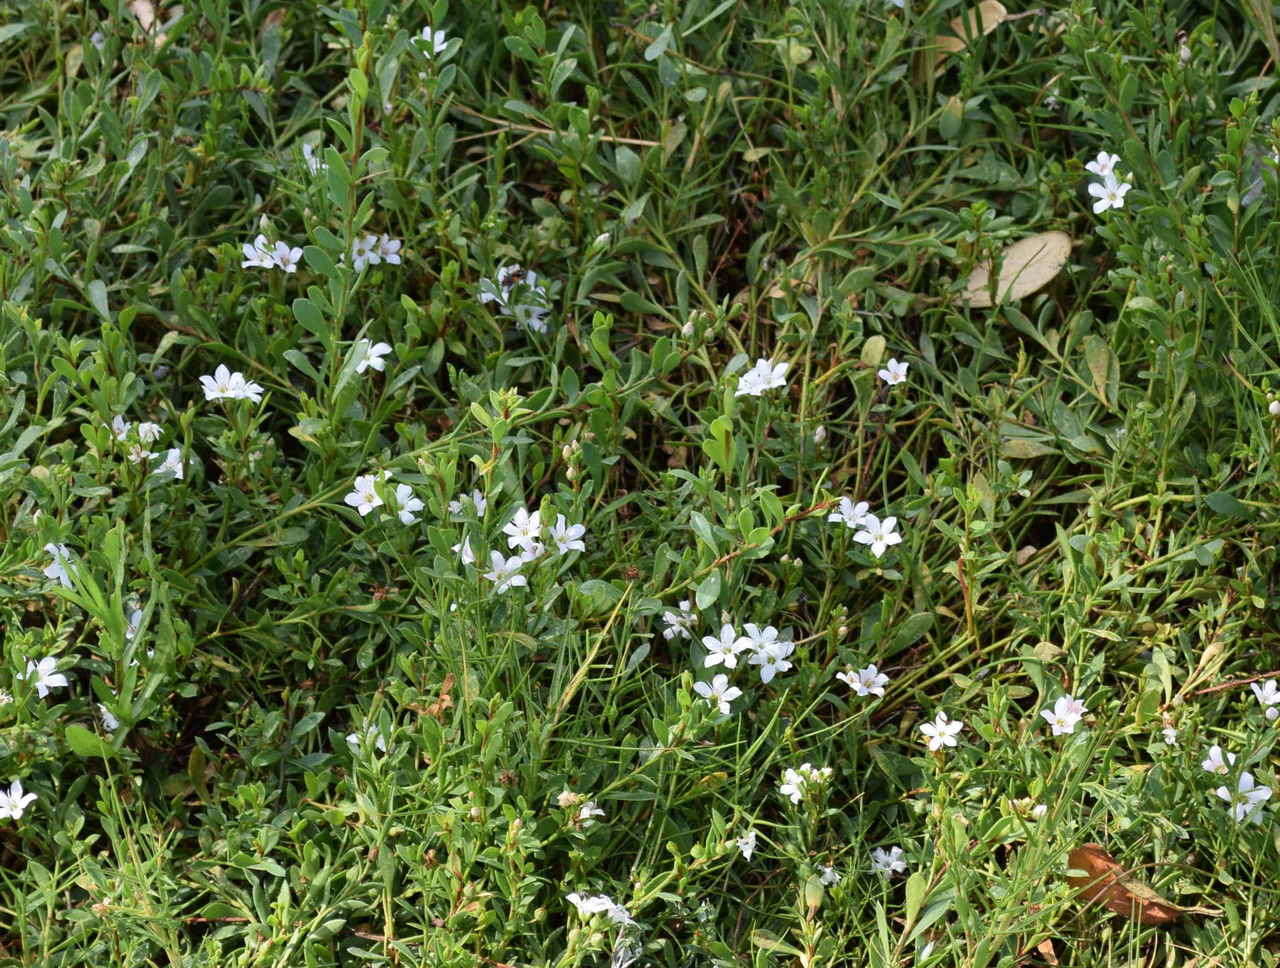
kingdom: Plantae
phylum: Tracheophyta
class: Magnoliopsida
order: Ericales
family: Primulaceae
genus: Samolus
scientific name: Samolus repens
